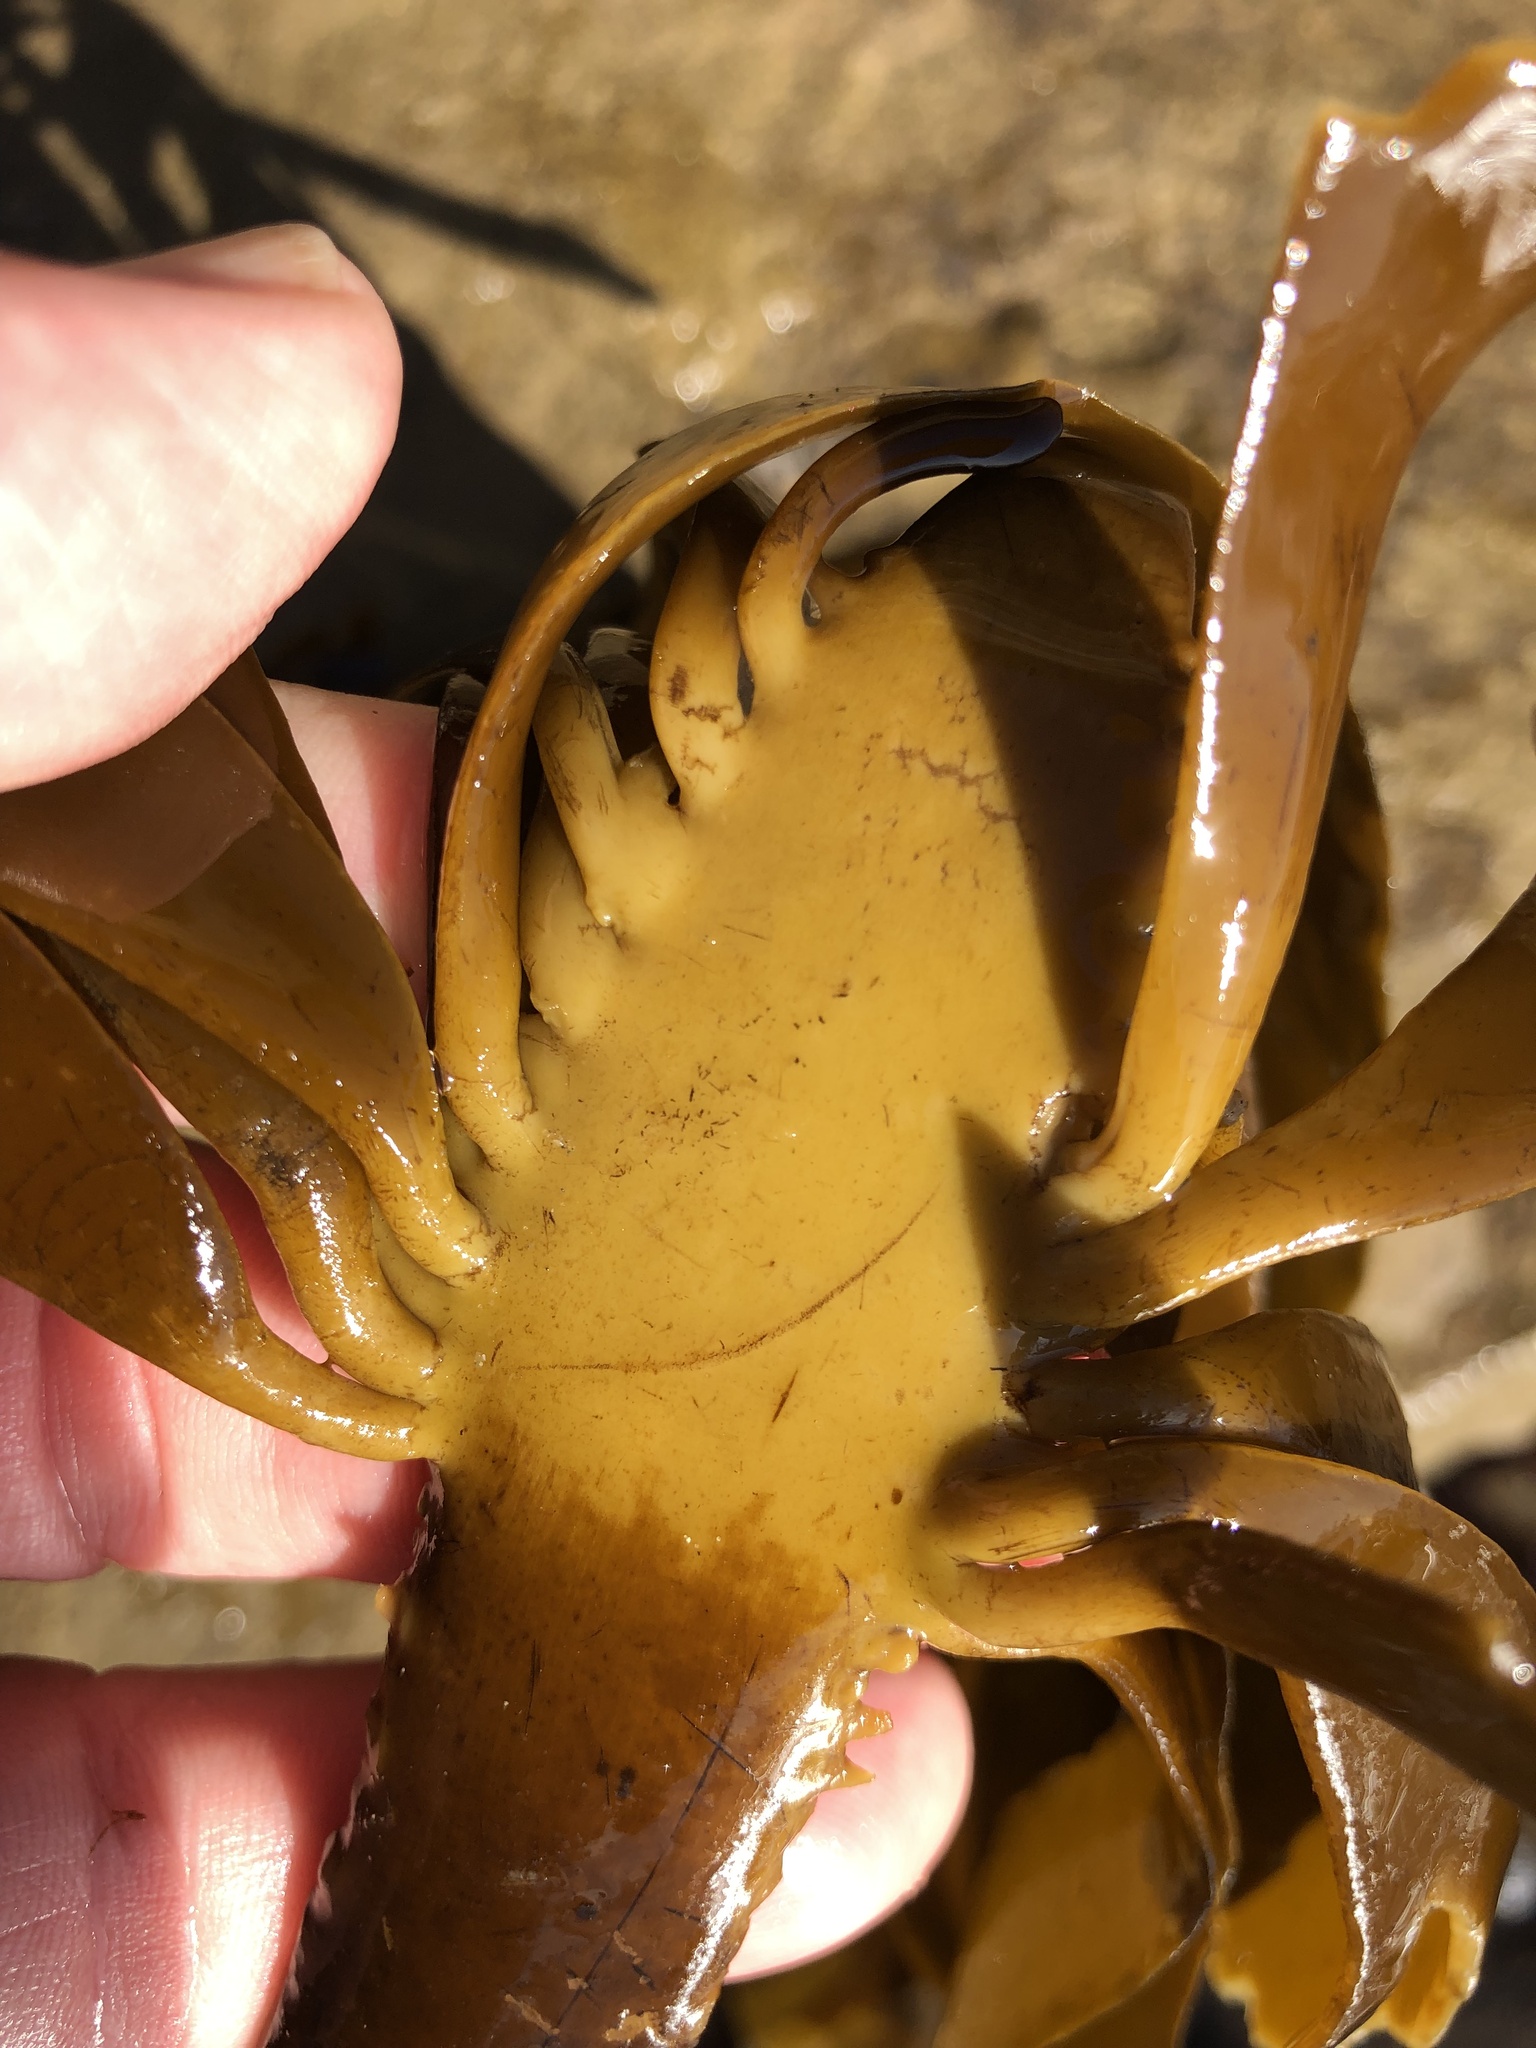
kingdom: Chromista
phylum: Ochrophyta
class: Phaeophyceae
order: Laminariales
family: Alariaceae
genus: Pterygophora
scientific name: Pterygophora californica
